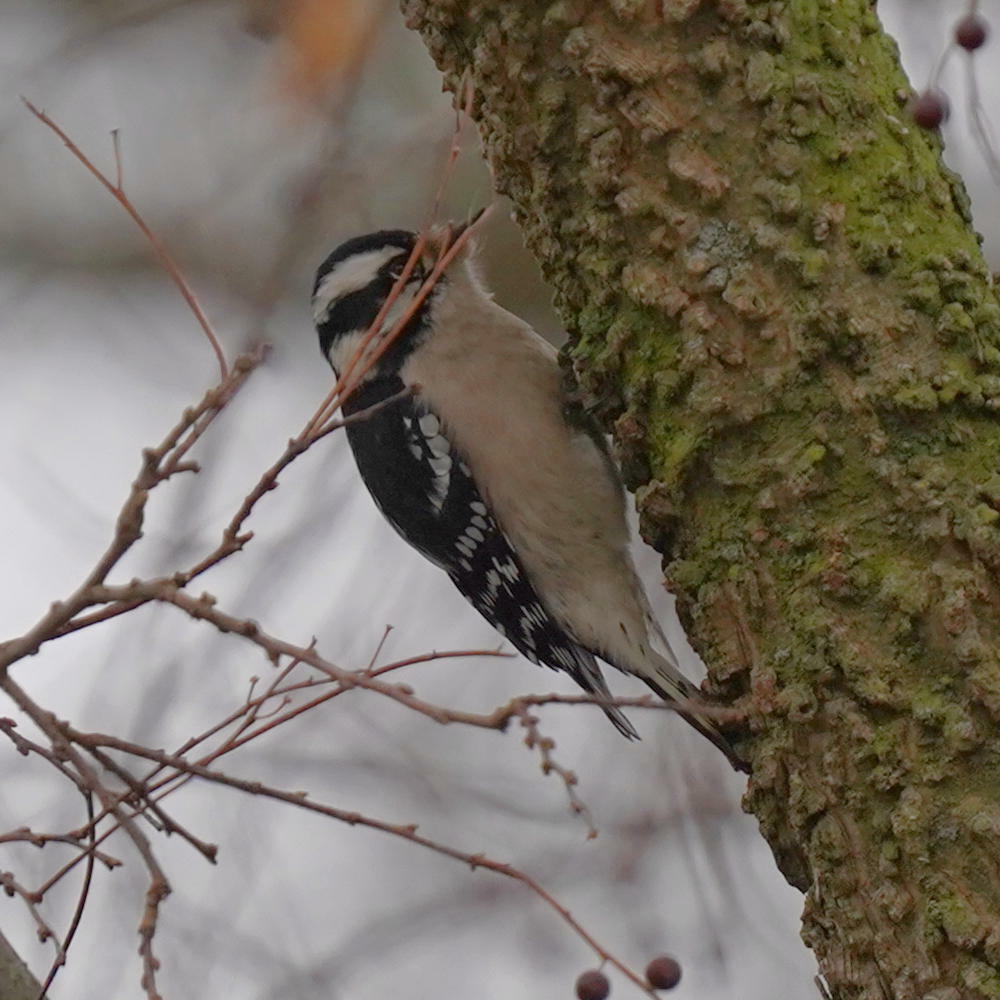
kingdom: Animalia
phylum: Chordata
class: Aves
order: Piciformes
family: Picidae
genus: Dryobates
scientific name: Dryobates pubescens
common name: Downy woodpecker
